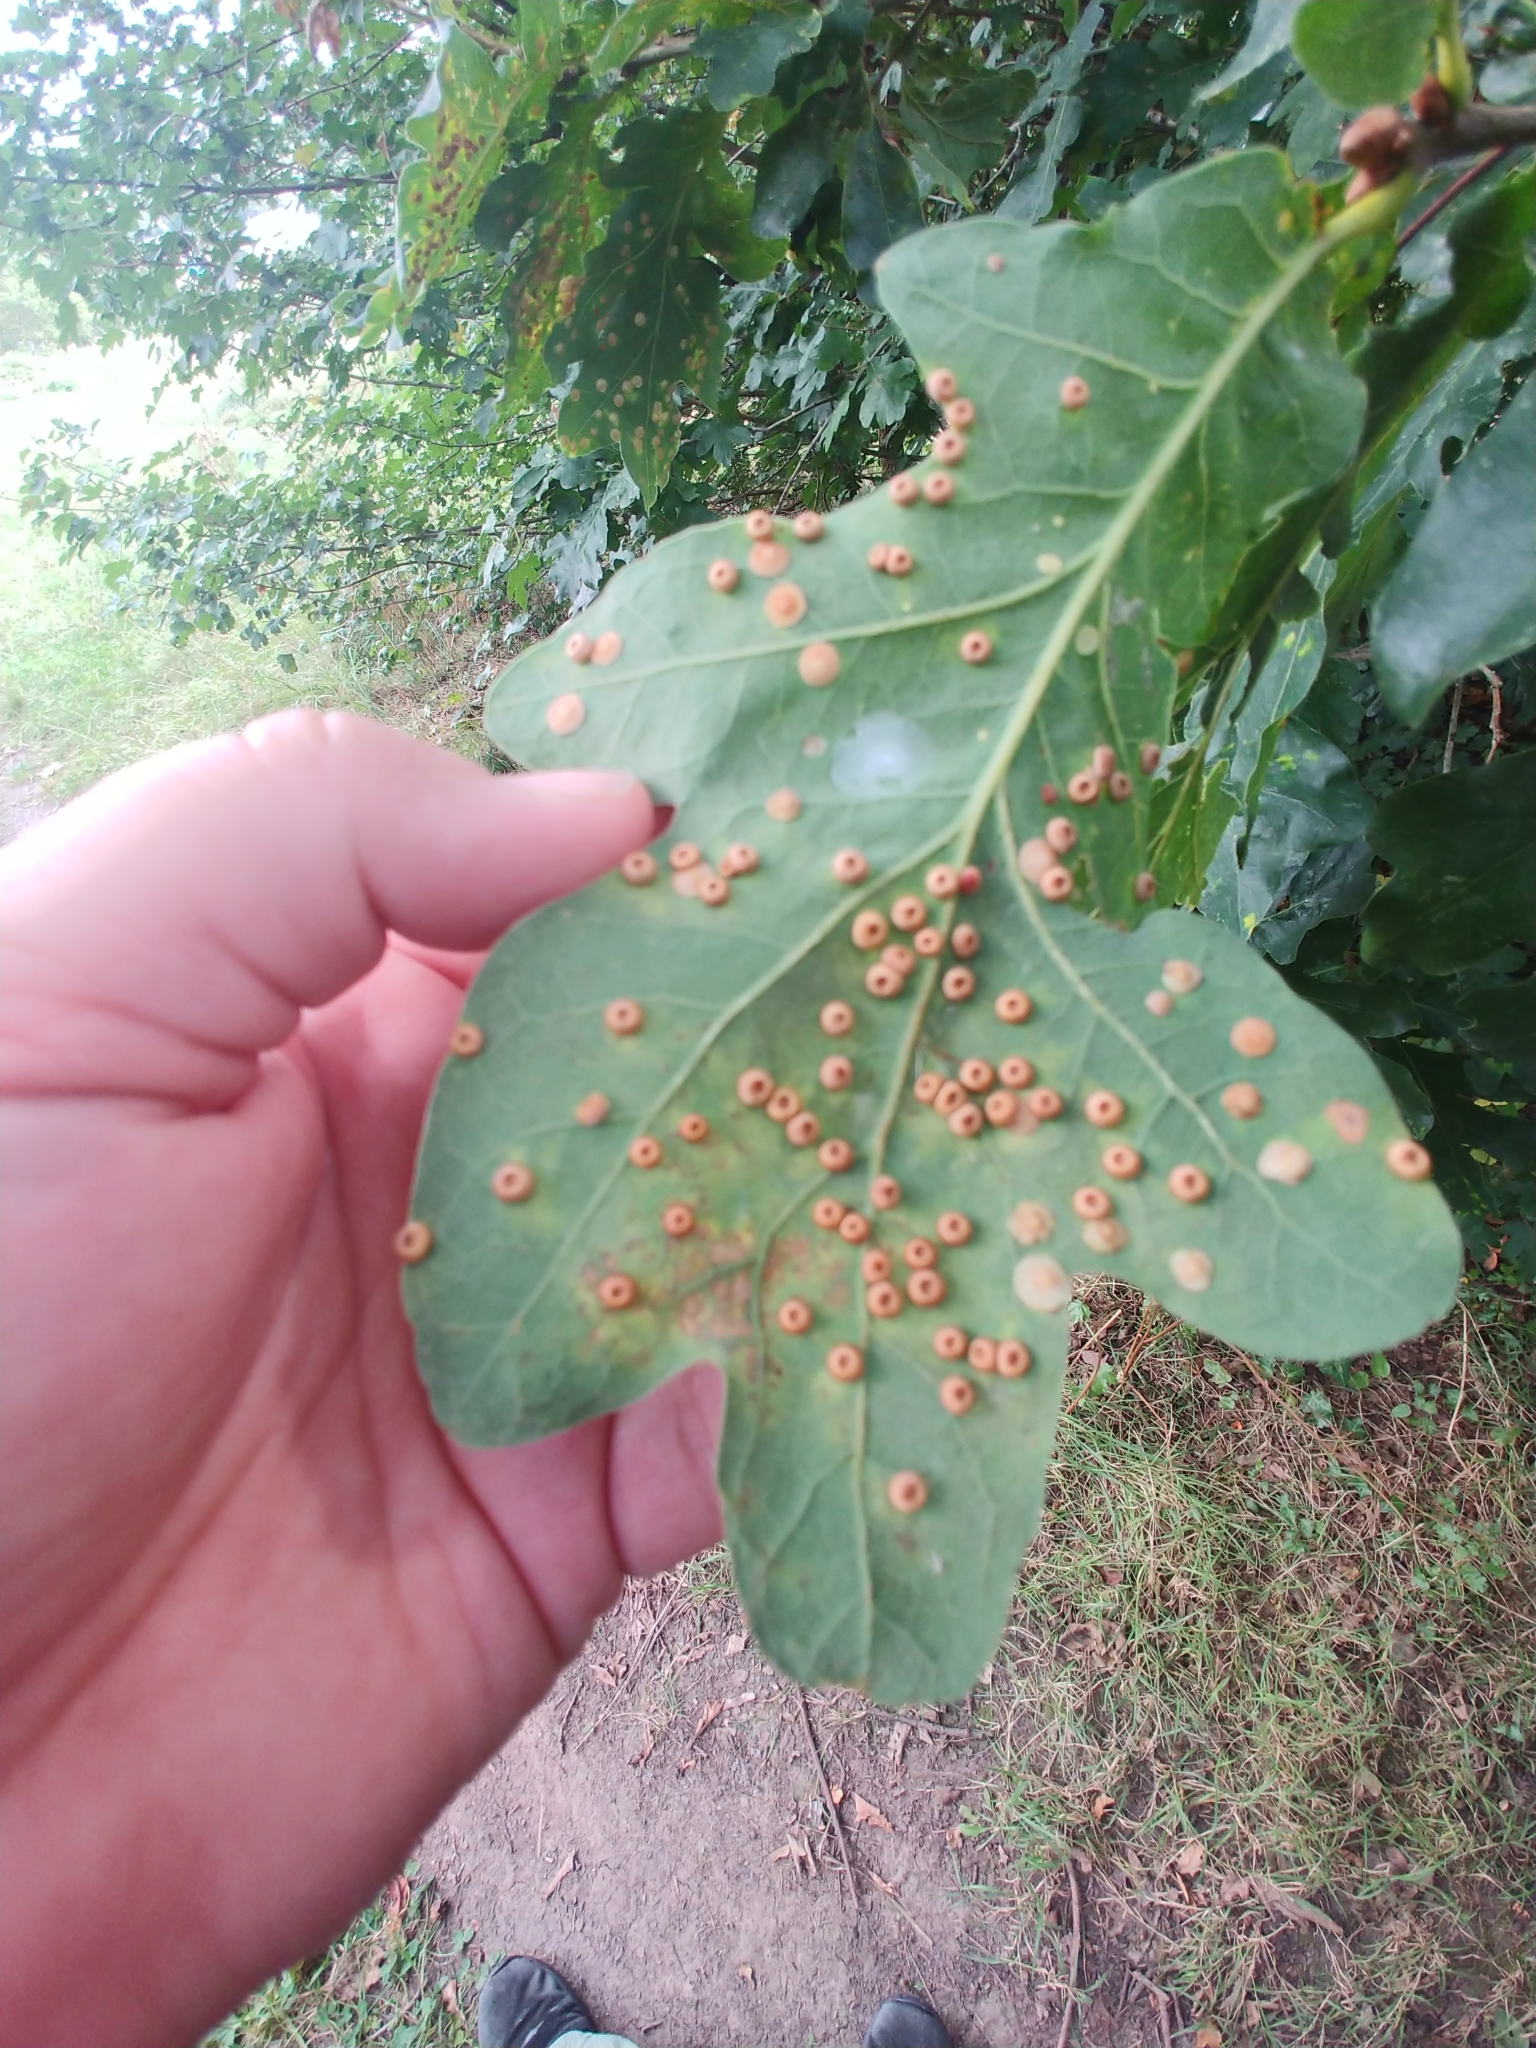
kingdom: Animalia
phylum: Arthropoda
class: Insecta
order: Hymenoptera
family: Cynipidae
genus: Neuroterus
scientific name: Neuroterus numismalis
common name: Silk-button spangle gall
